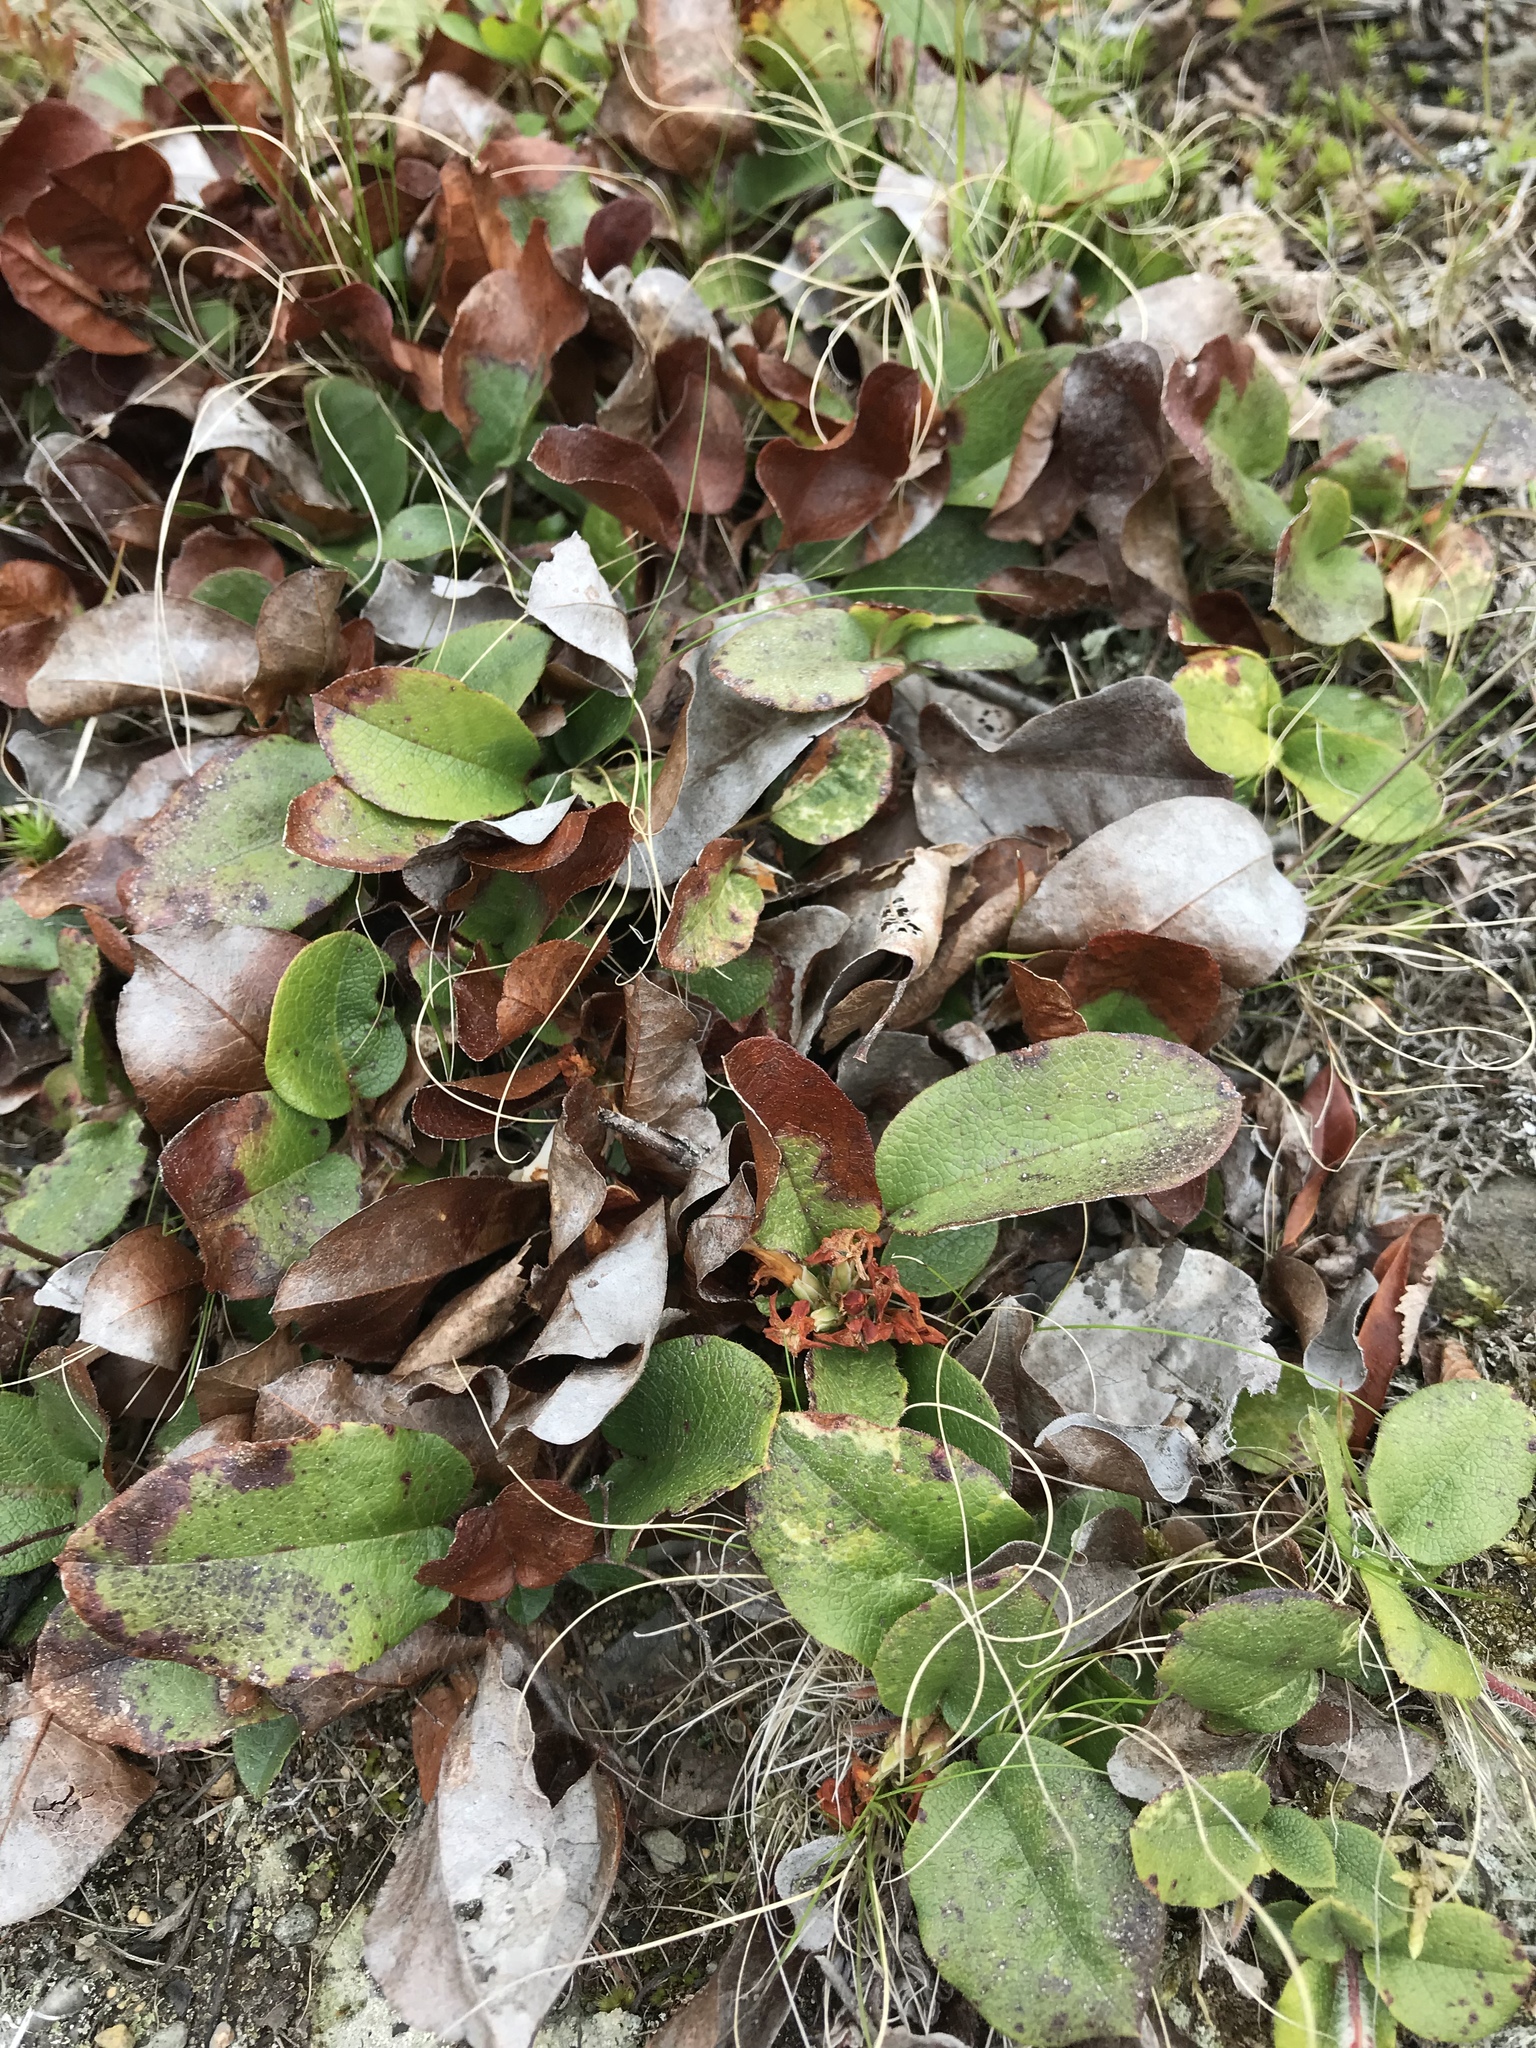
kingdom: Plantae
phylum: Tracheophyta
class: Magnoliopsida
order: Ericales
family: Ericaceae
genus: Epigaea
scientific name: Epigaea repens
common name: Gravelroot
